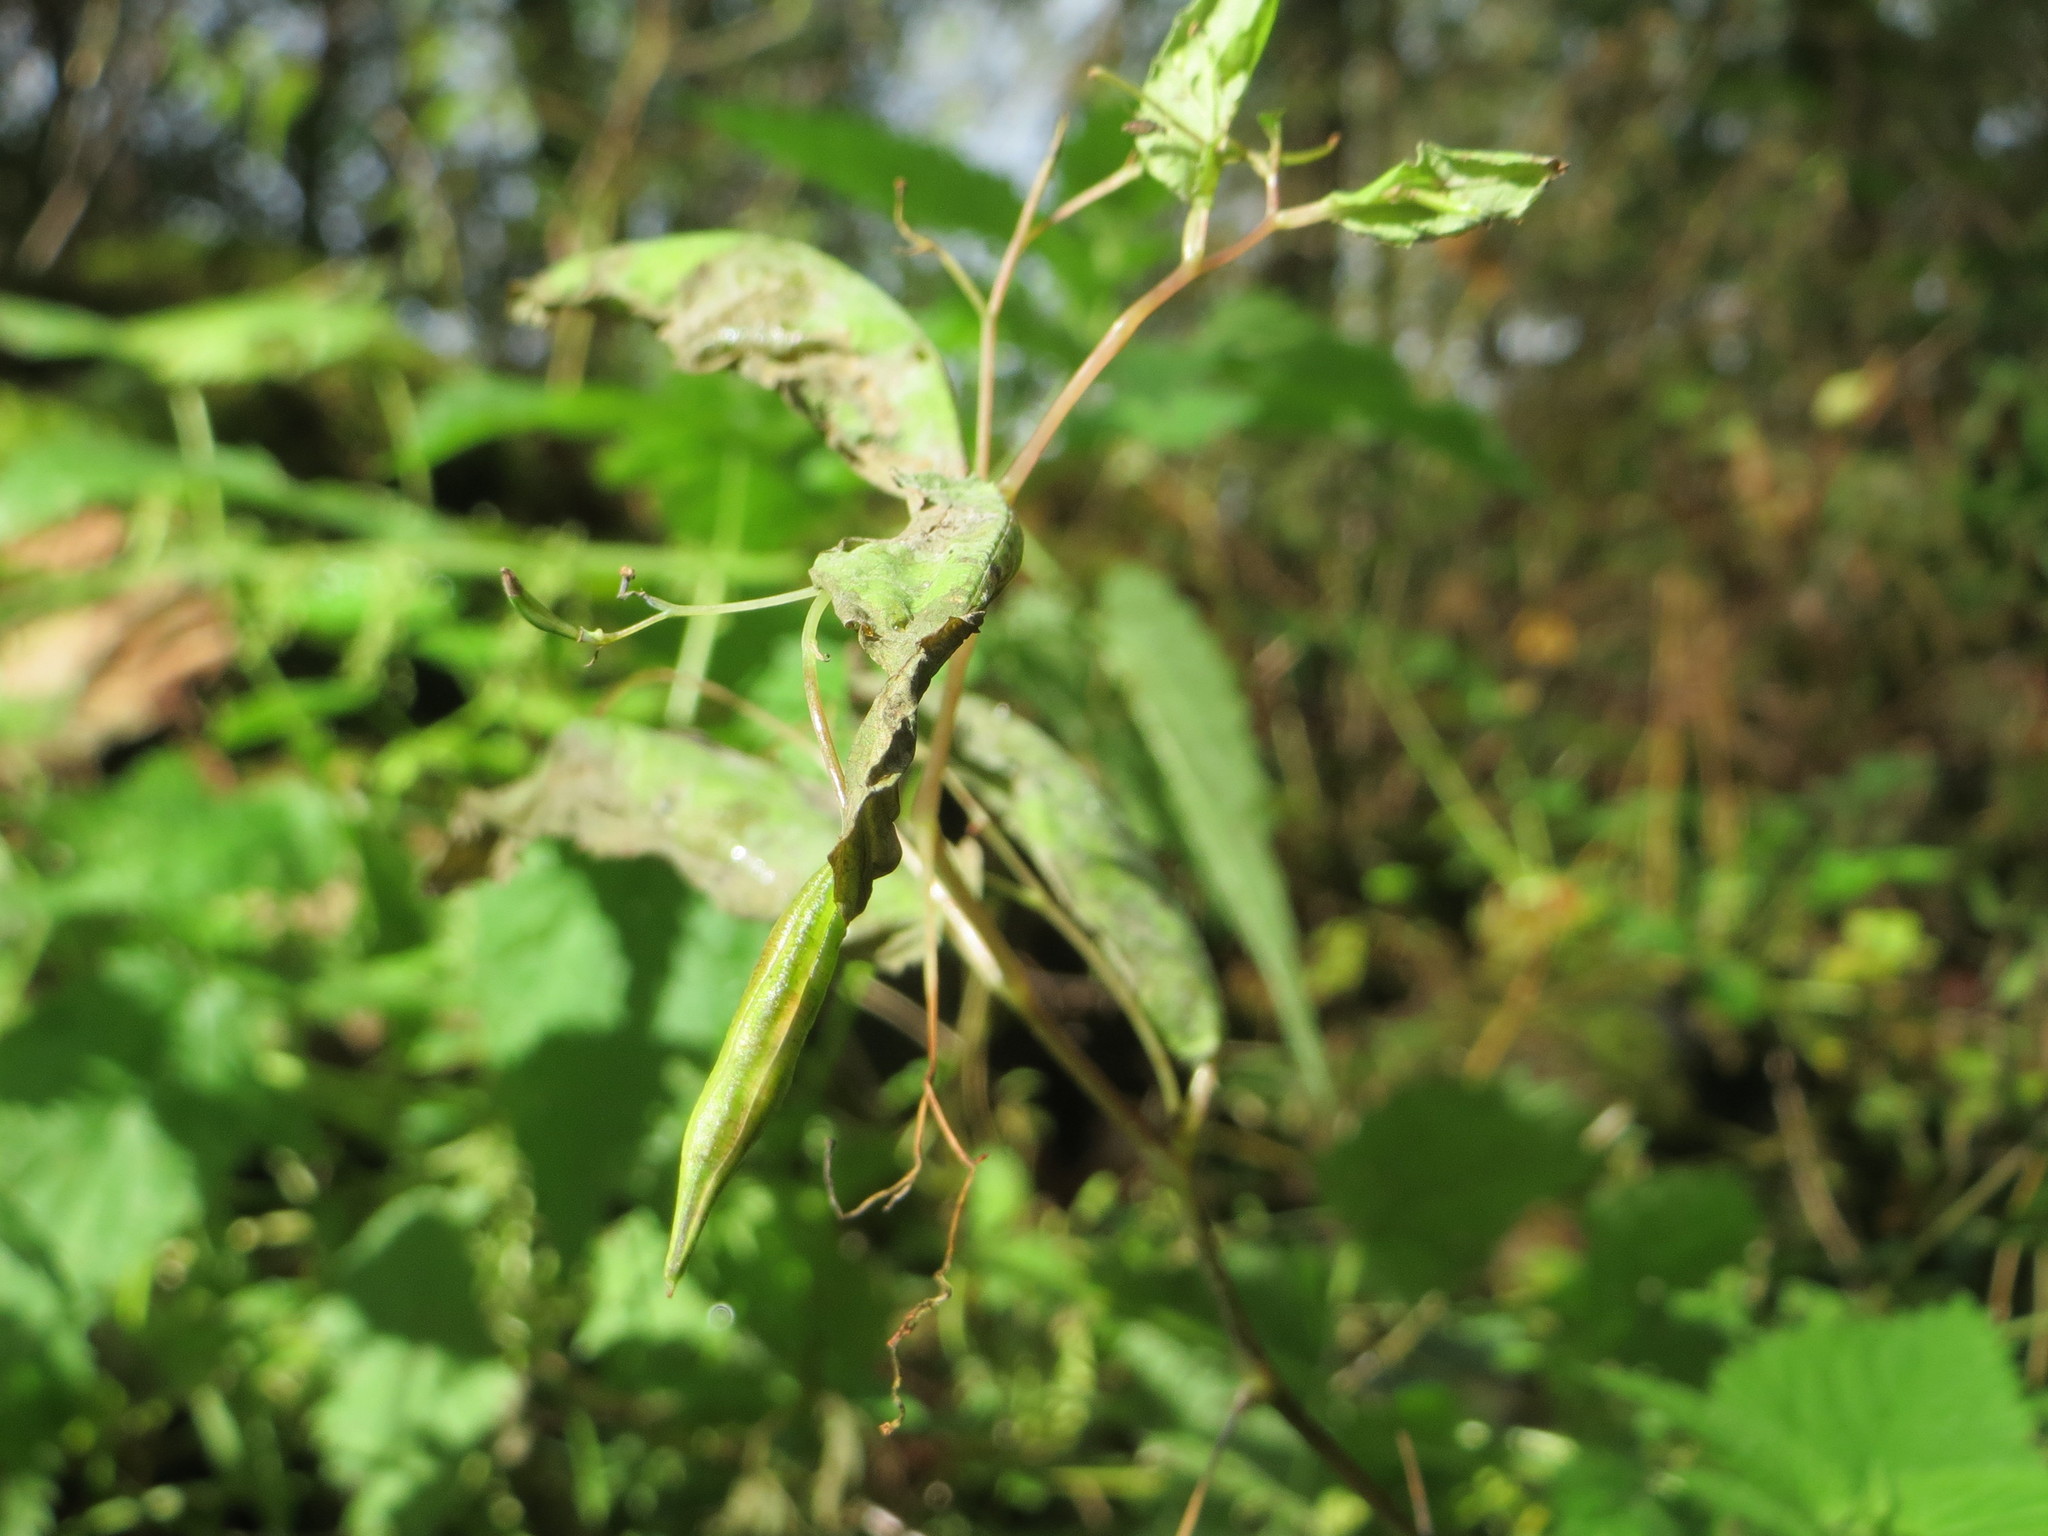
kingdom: Plantae
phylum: Tracheophyta
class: Magnoliopsida
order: Ericales
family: Balsaminaceae
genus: Impatiens
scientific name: Impatiens noli-tangere
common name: Touch-me-not balsam
